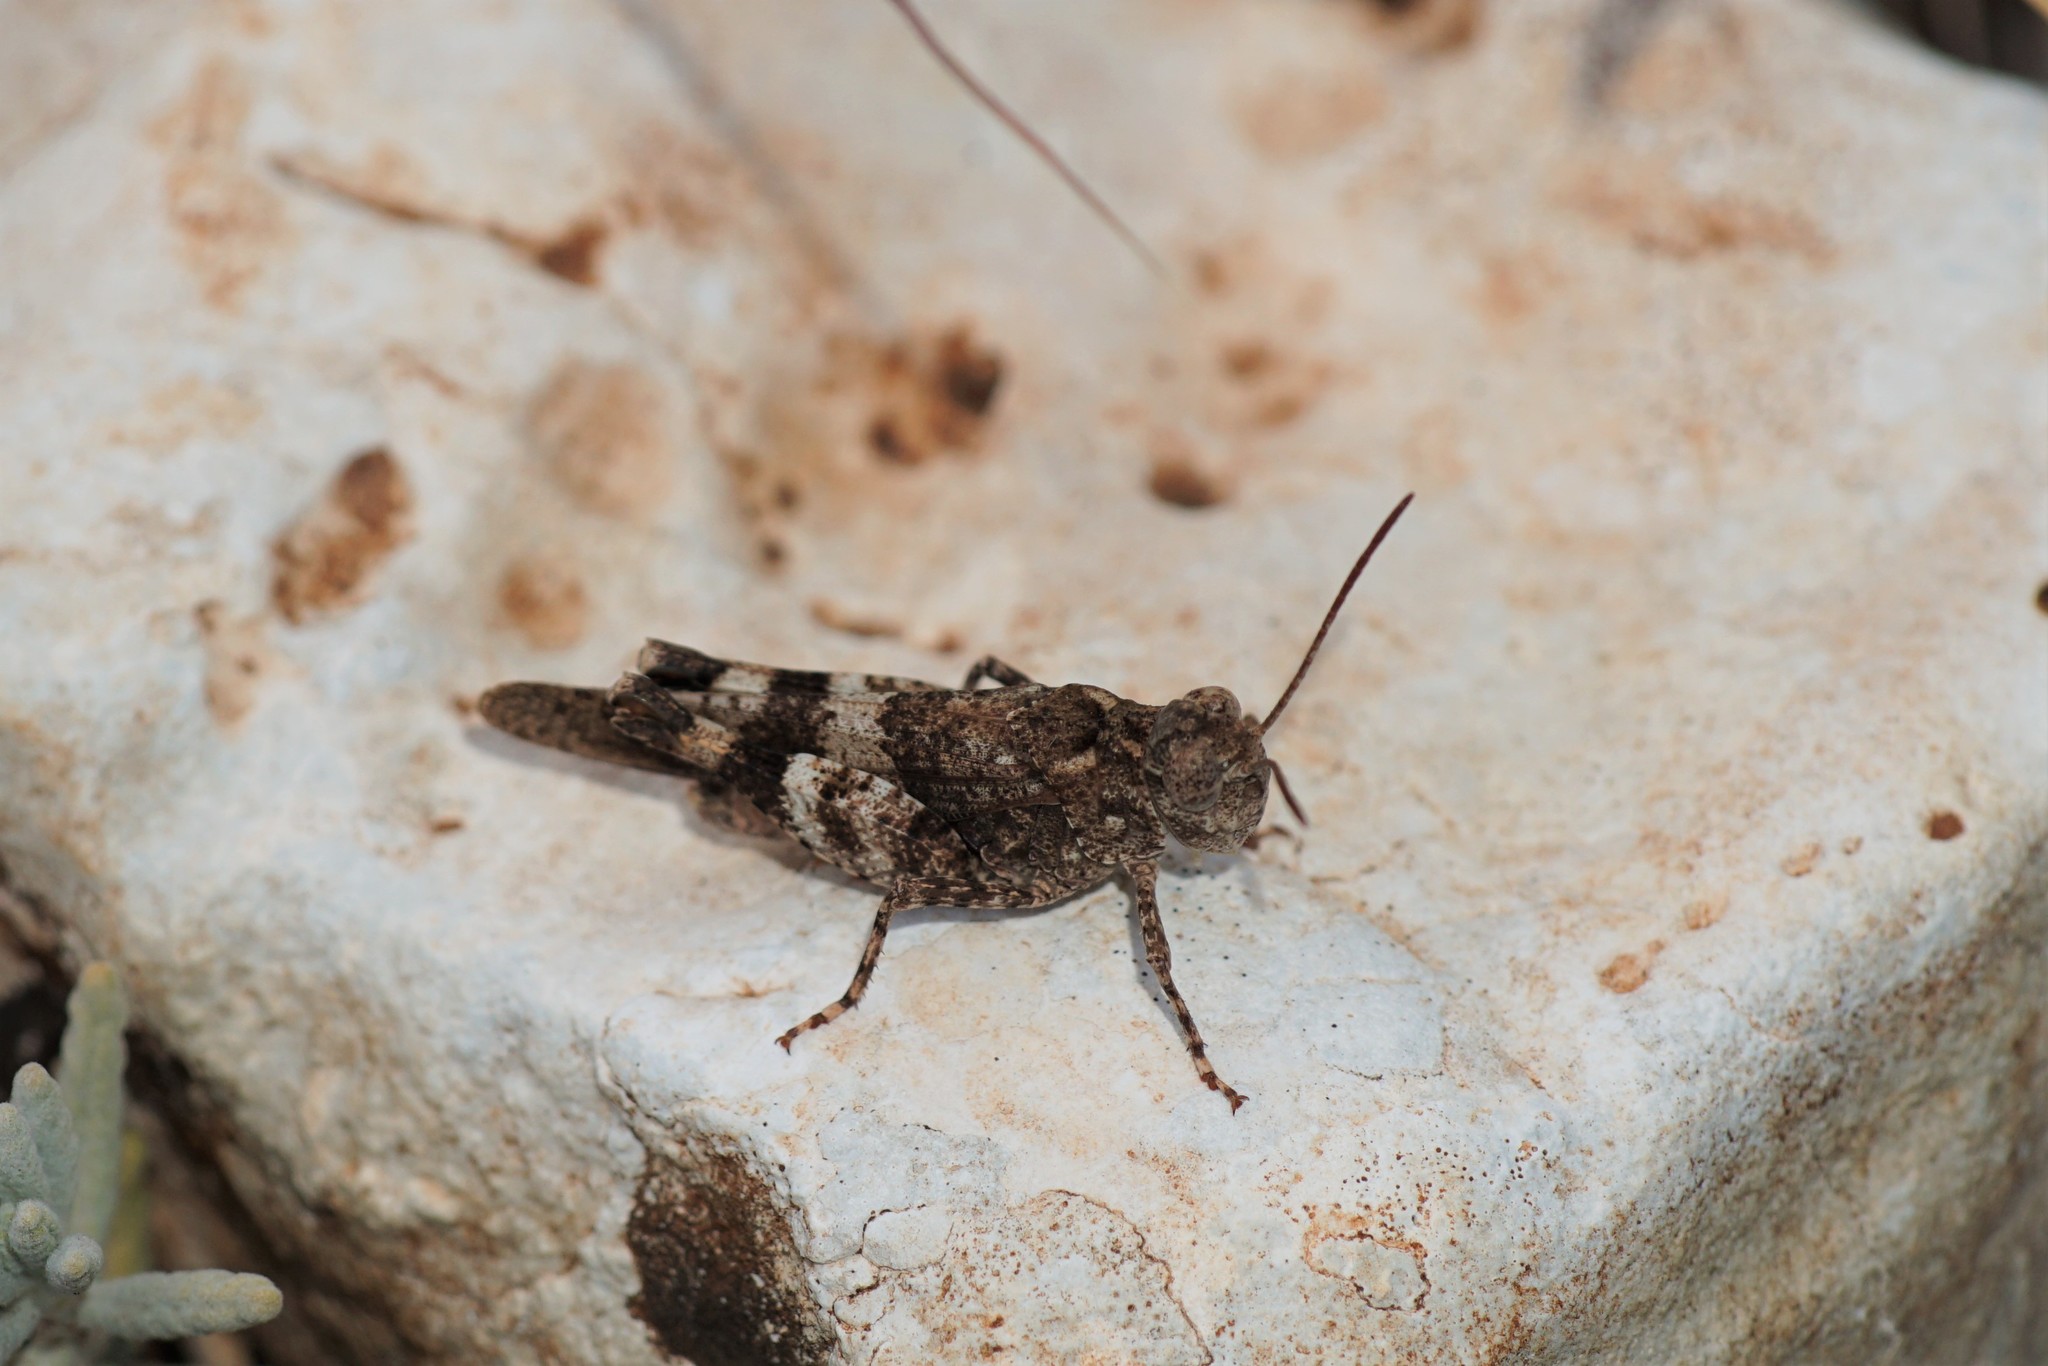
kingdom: Animalia
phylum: Arthropoda
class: Insecta
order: Orthoptera
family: Acrididae
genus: Oedipoda
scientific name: Oedipoda caerulescens
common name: Blue-winged grasshopper
